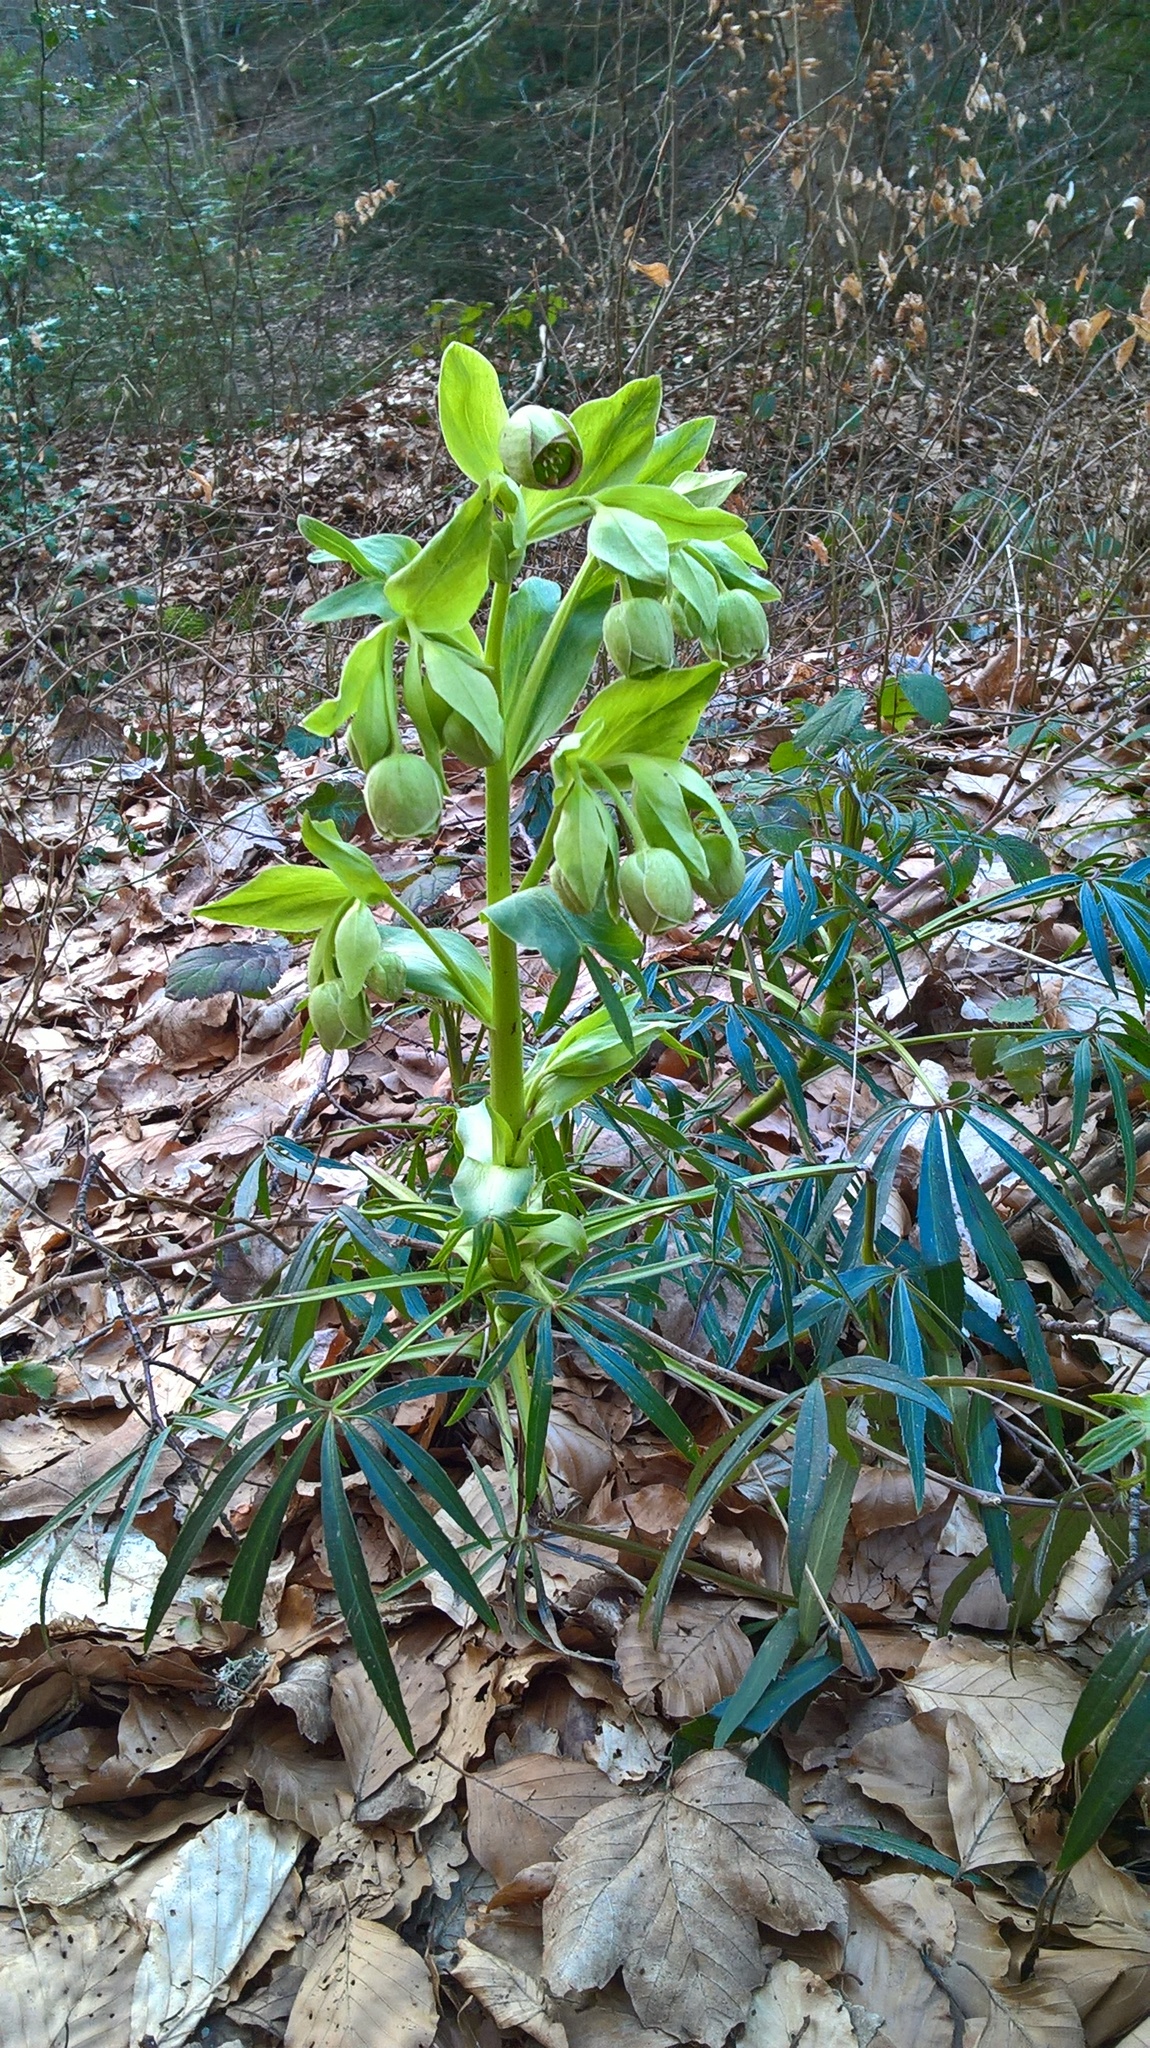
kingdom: Plantae
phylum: Tracheophyta
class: Magnoliopsida
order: Ranunculales
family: Ranunculaceae
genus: Helleborus
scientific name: Helleborus foetidus
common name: Stinking hellebore
